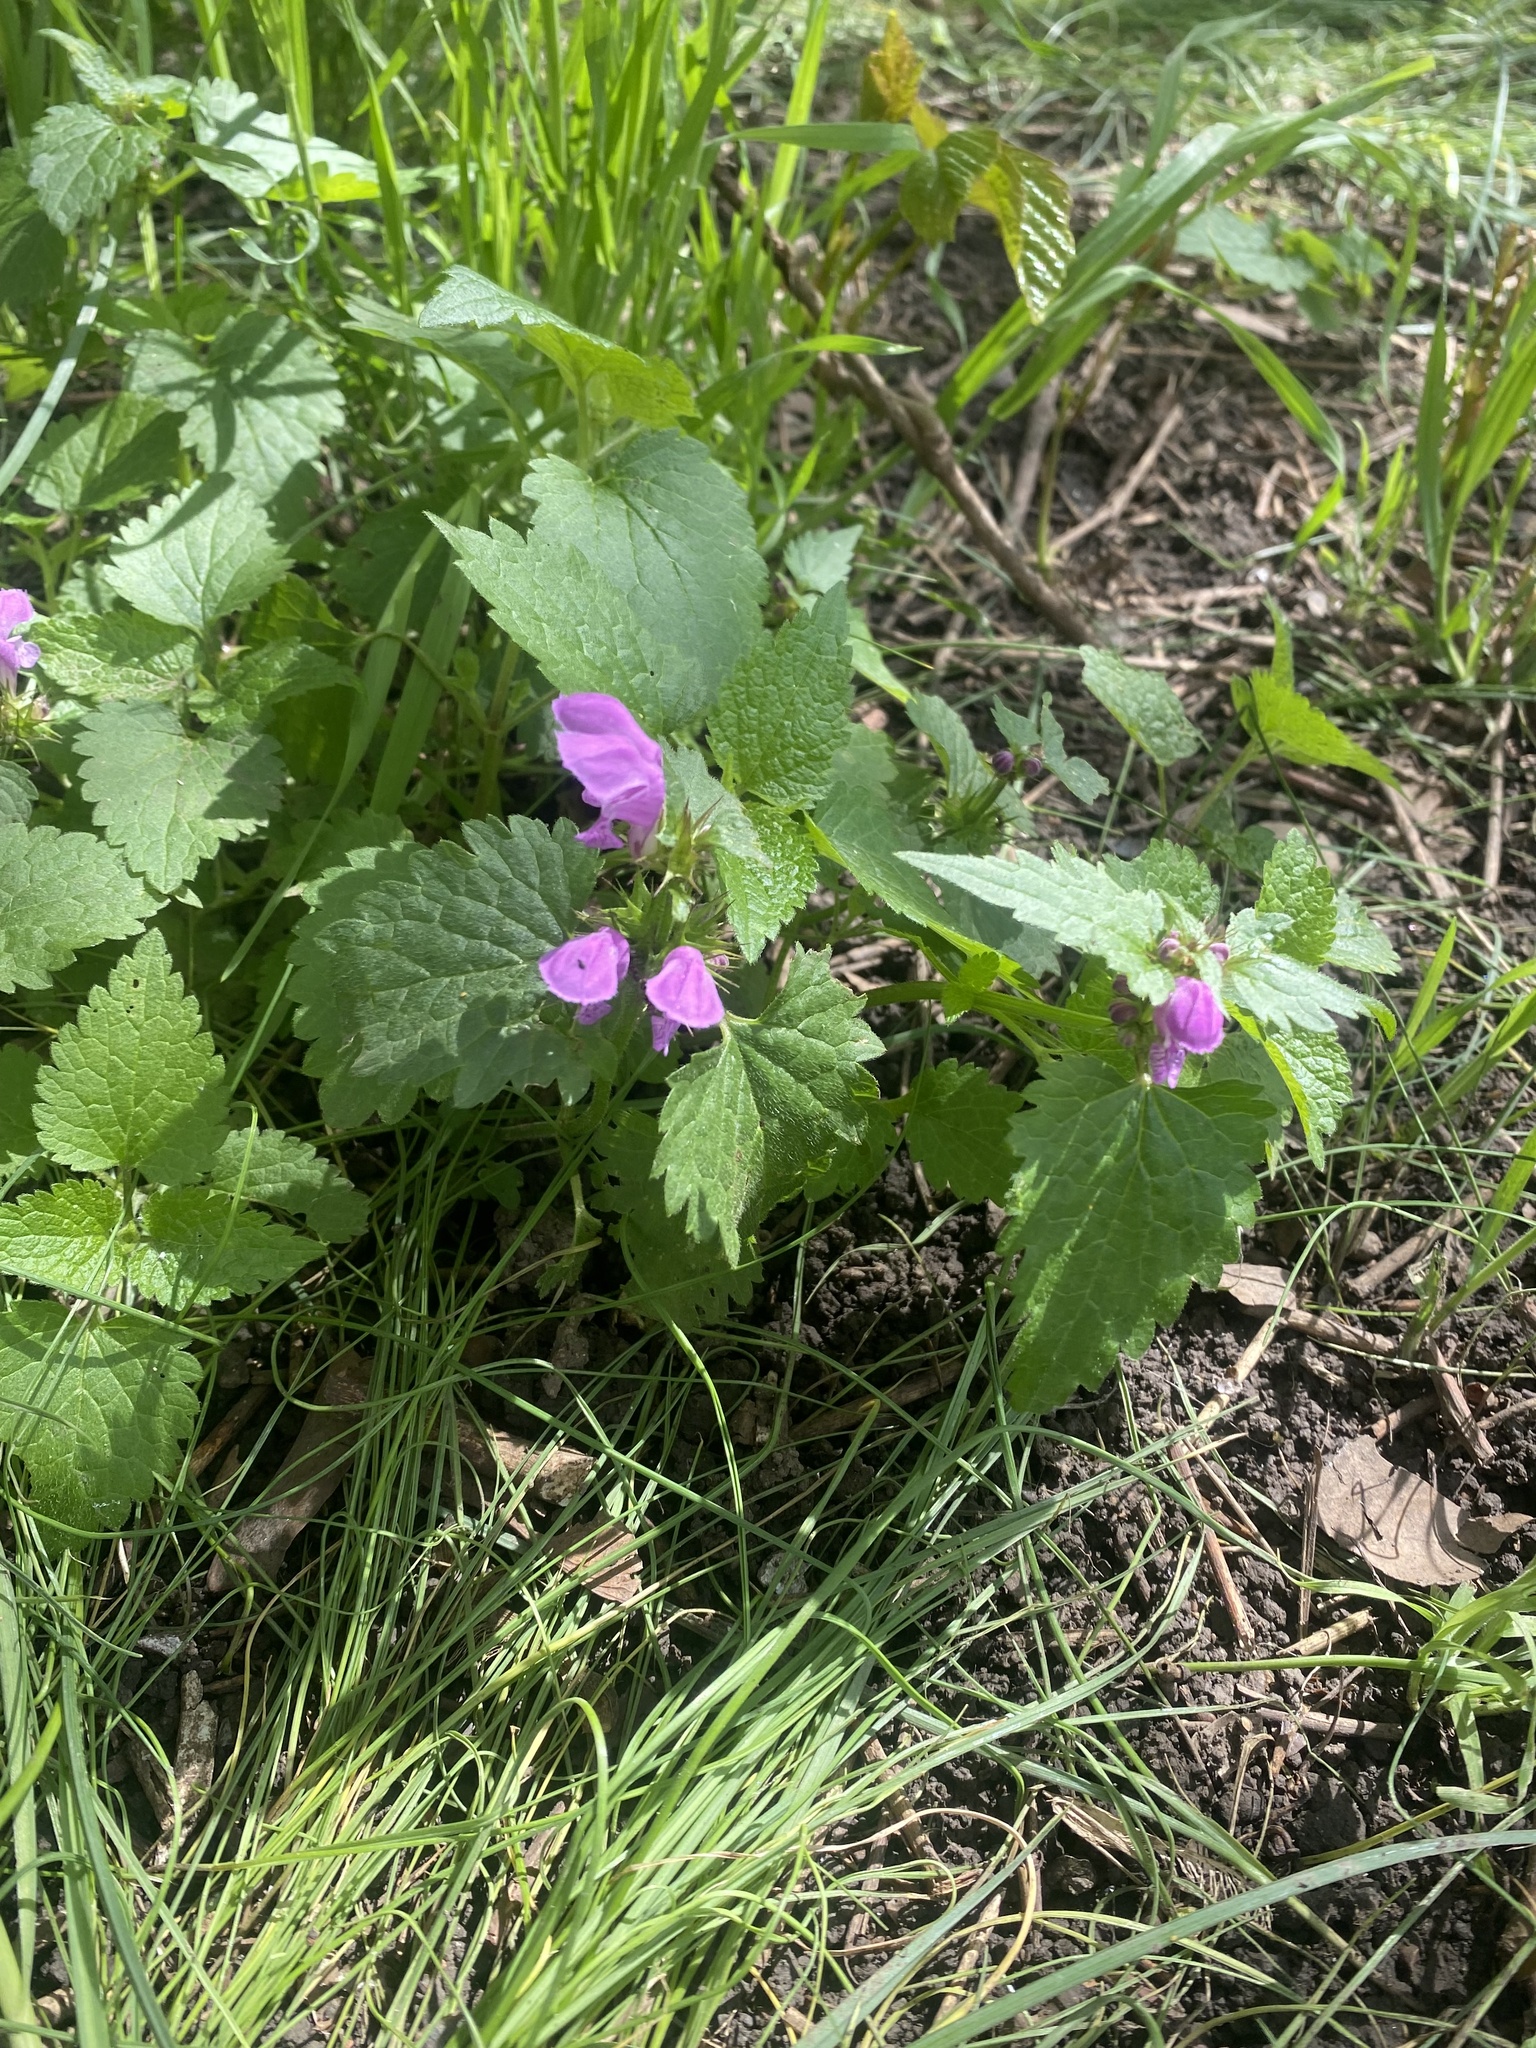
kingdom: Plantae
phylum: Tracheophyta
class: Magnoliopsida
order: Lamiales
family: Lamiaceae
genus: Lamium
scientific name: Lamium maculatum
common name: Spotted dead-nettle
